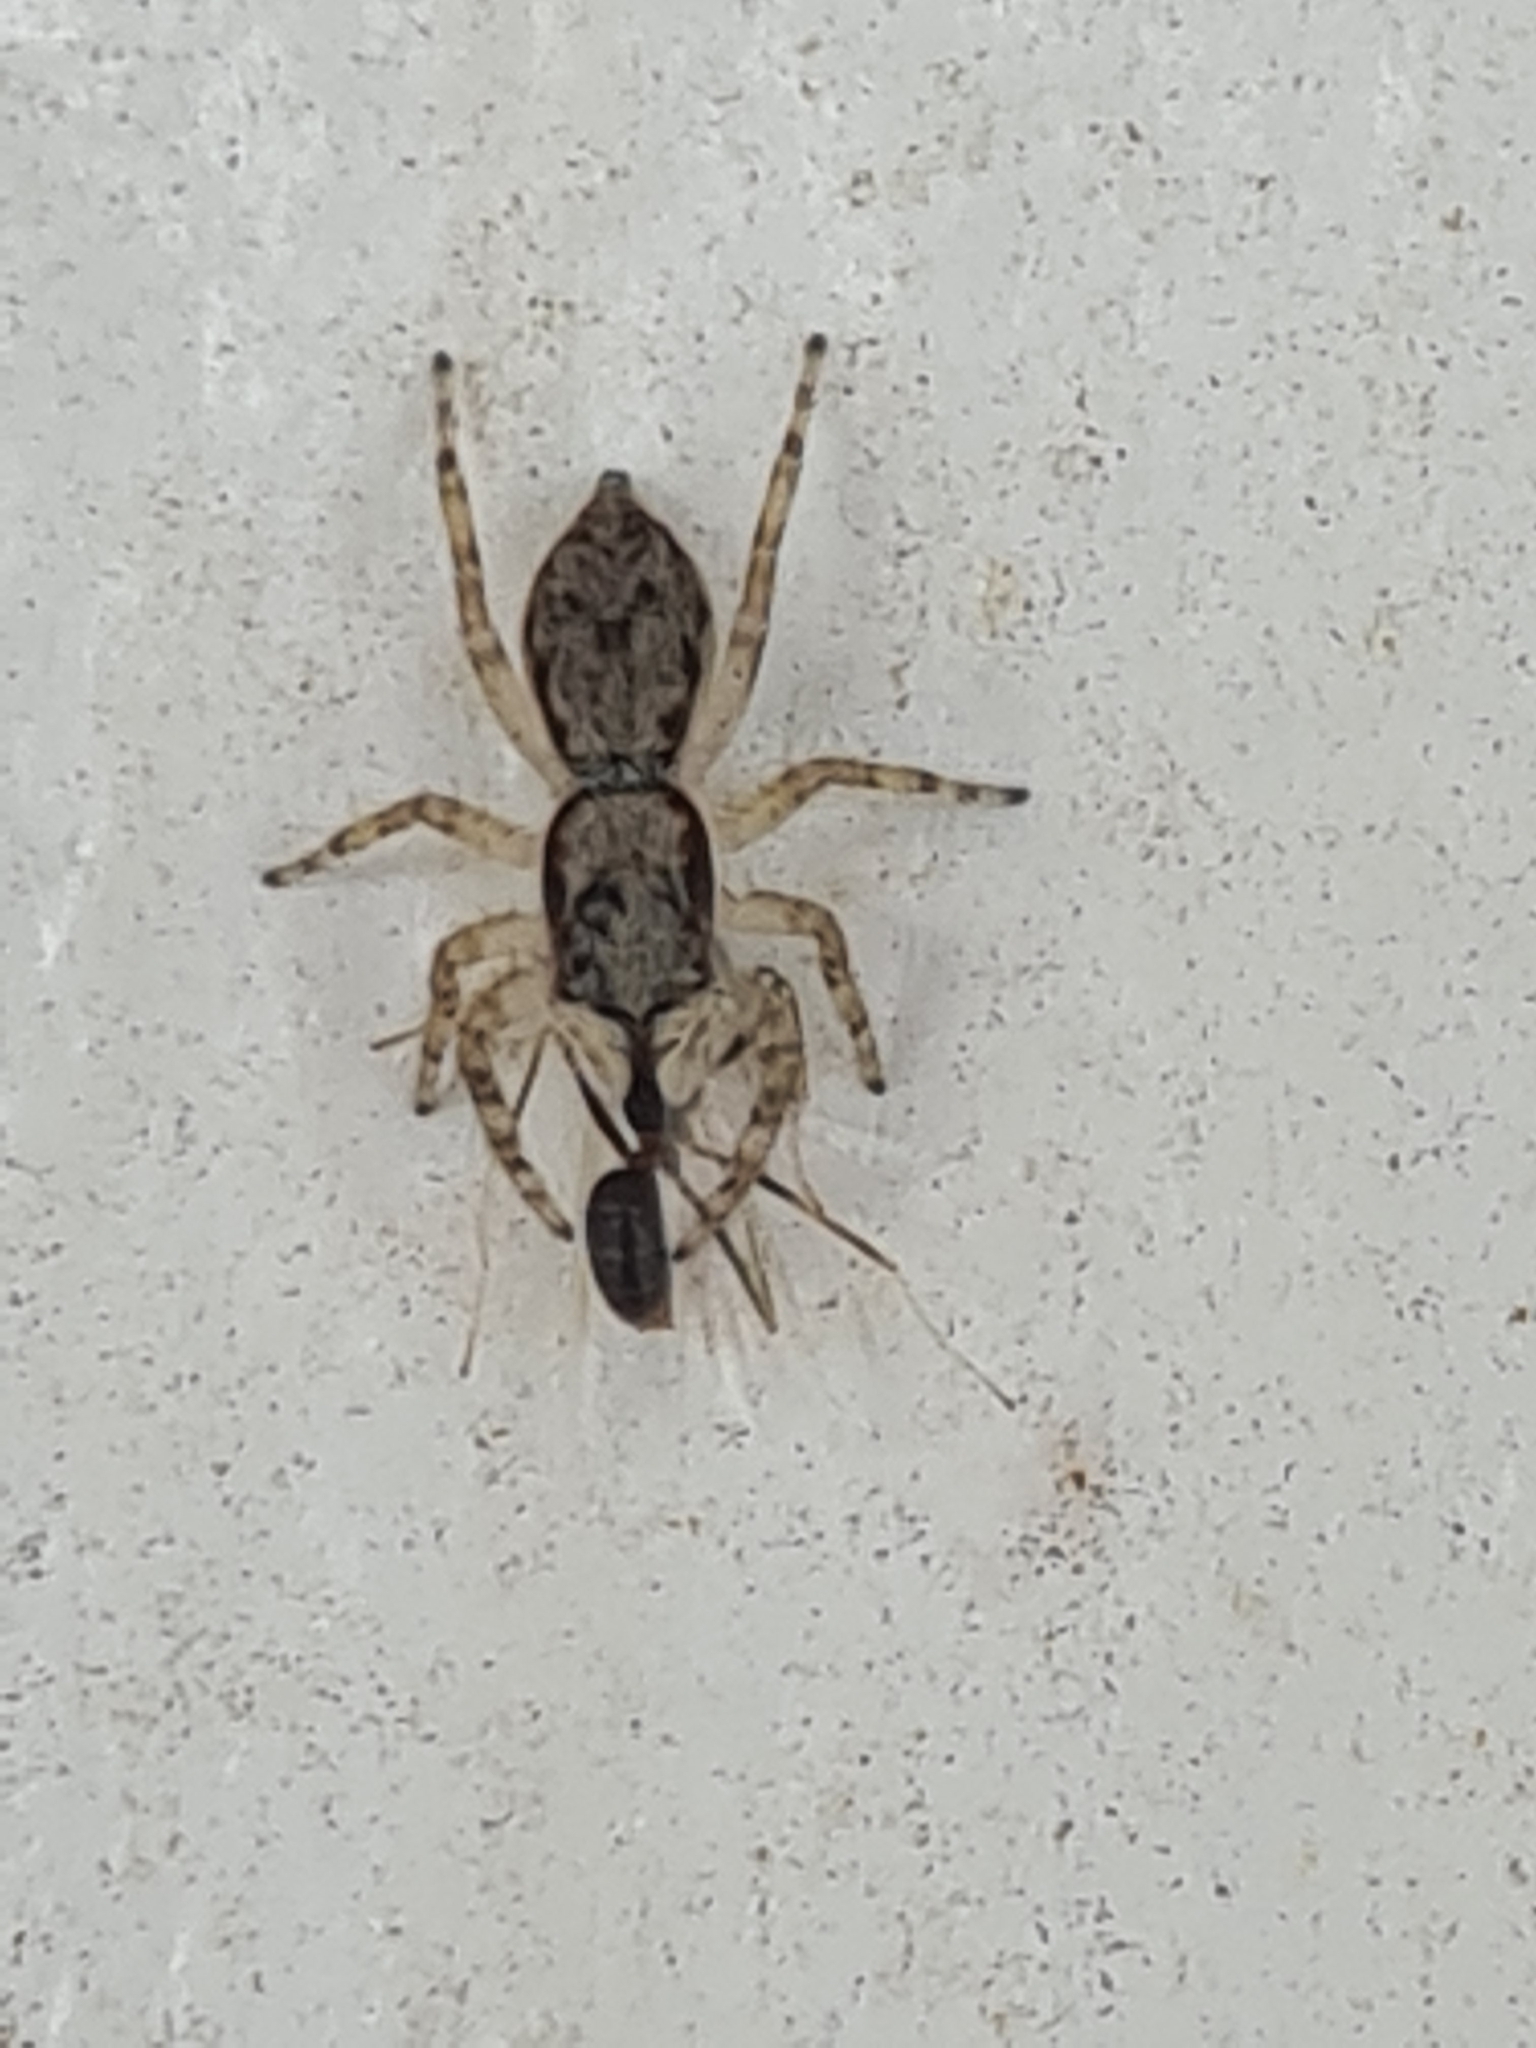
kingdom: Animalia
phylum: Arthropoda
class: Arachnida
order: Araneae
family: Salticidae
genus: Menemerus
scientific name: Menemerus bivittatus
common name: Gray wall jumper
